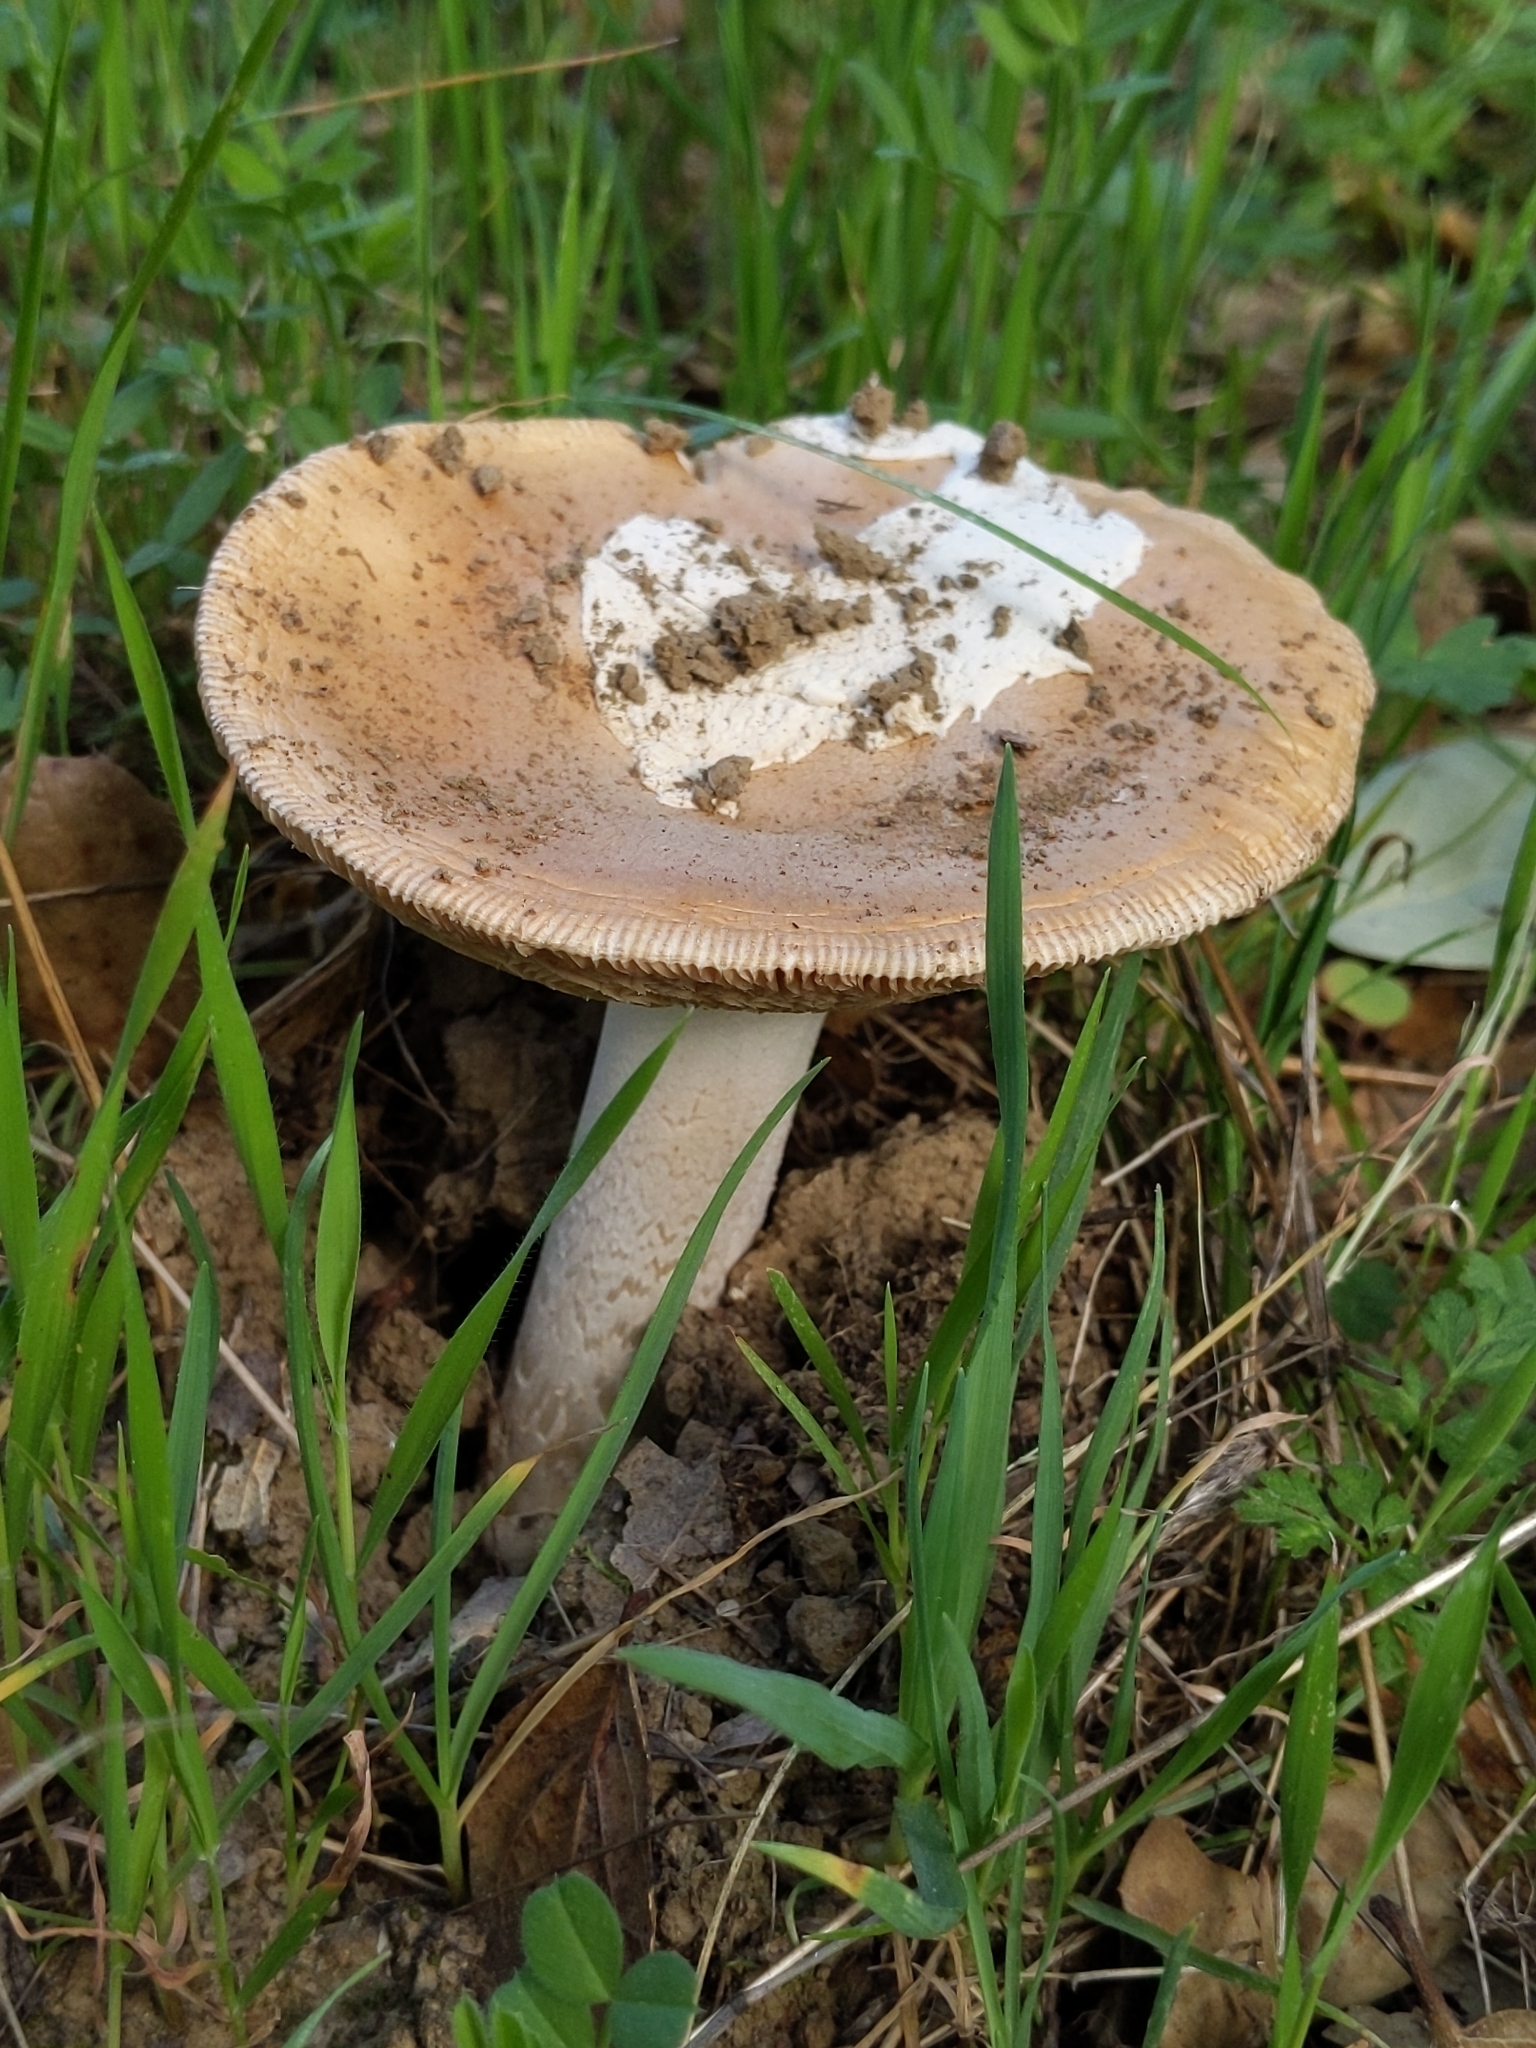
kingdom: Fungi
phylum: Basidiomycota
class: Agaricomycetes
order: Agaricales
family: Amanitaceae
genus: Amanita
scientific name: Amanita velosa
